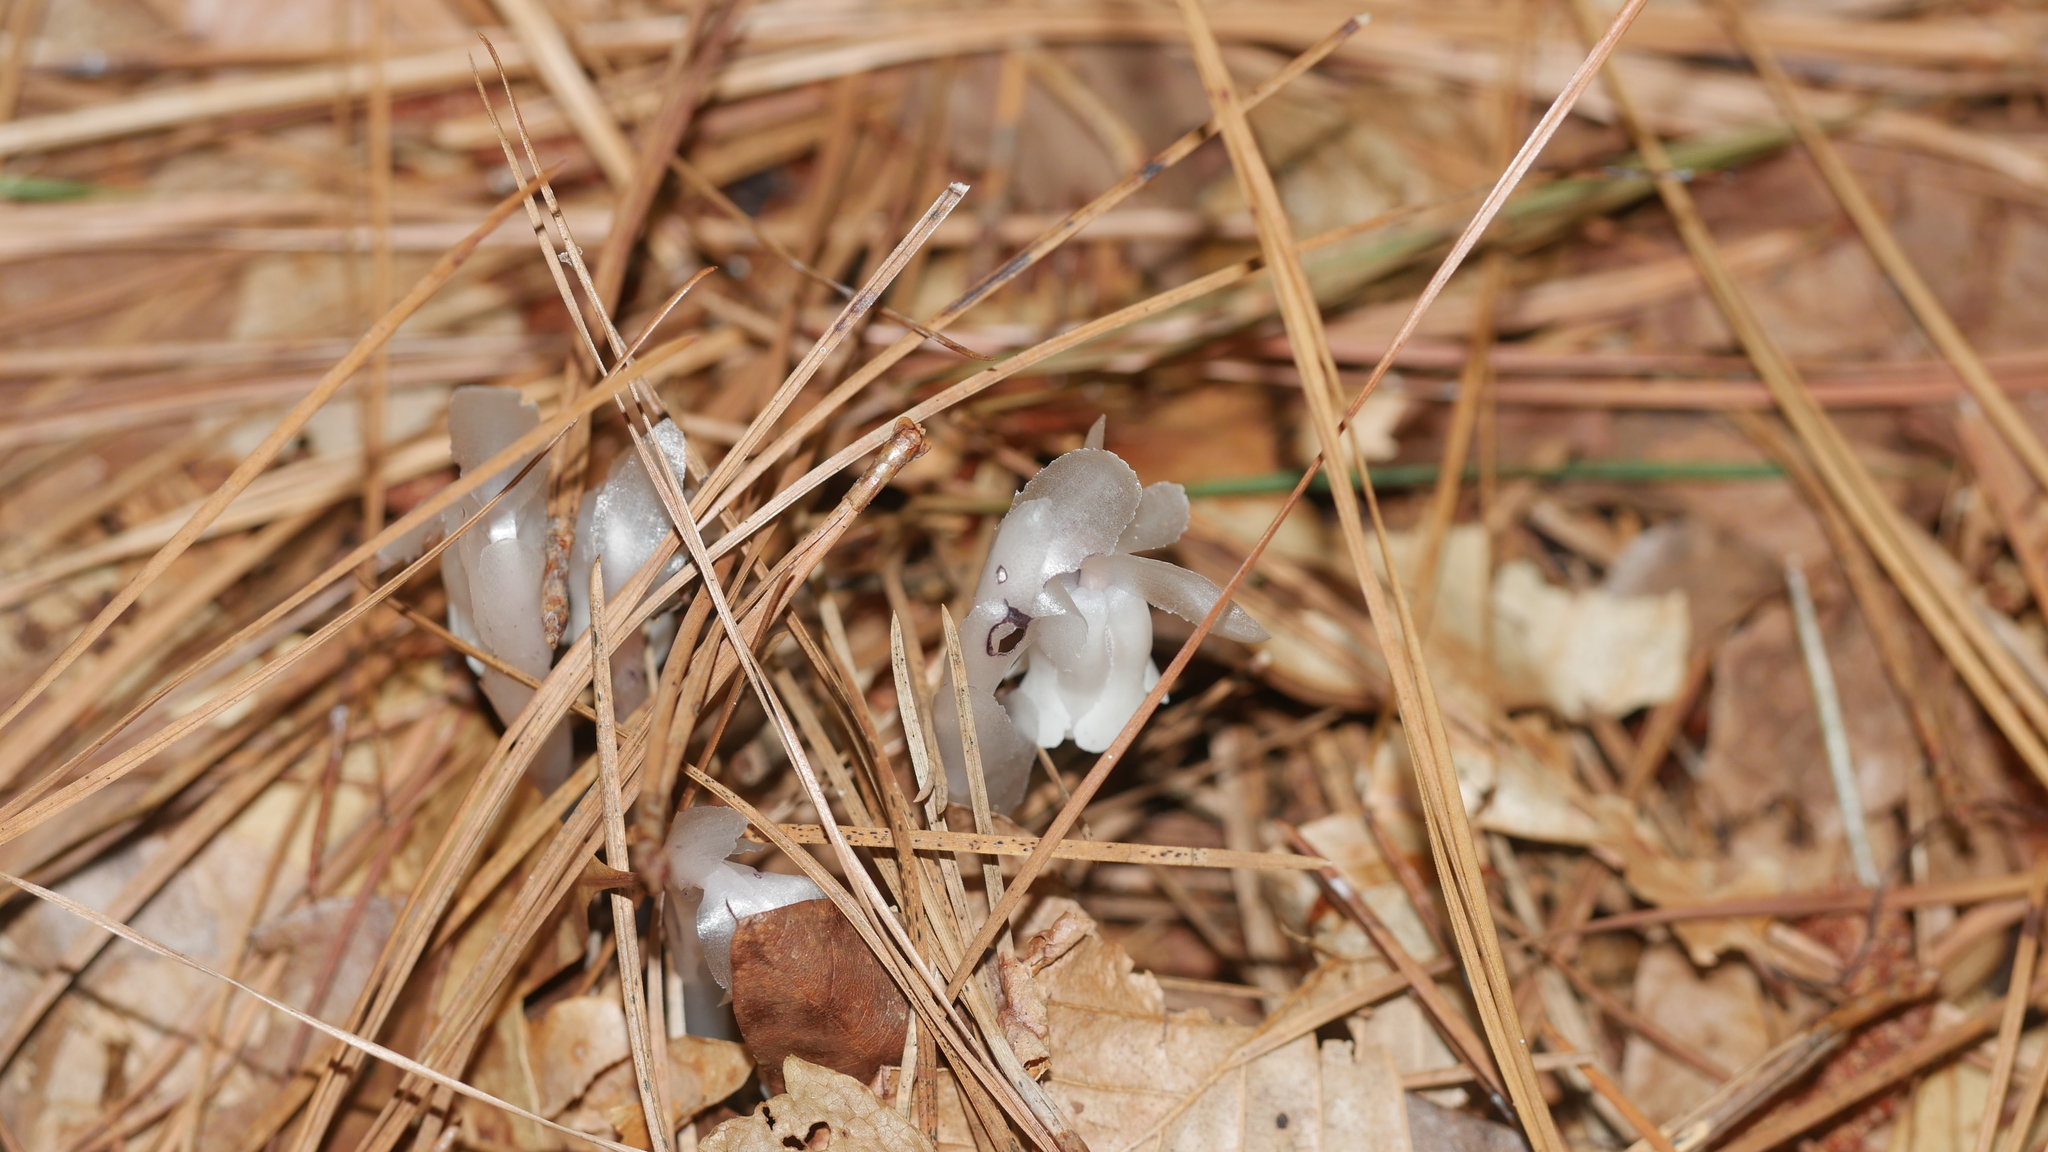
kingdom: Plantae
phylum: Tracheophyta
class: Magnoliopsida
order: Ericales
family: Ericaceae
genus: Monotropa
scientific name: Monotropa uniflora
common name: Convulsion root
